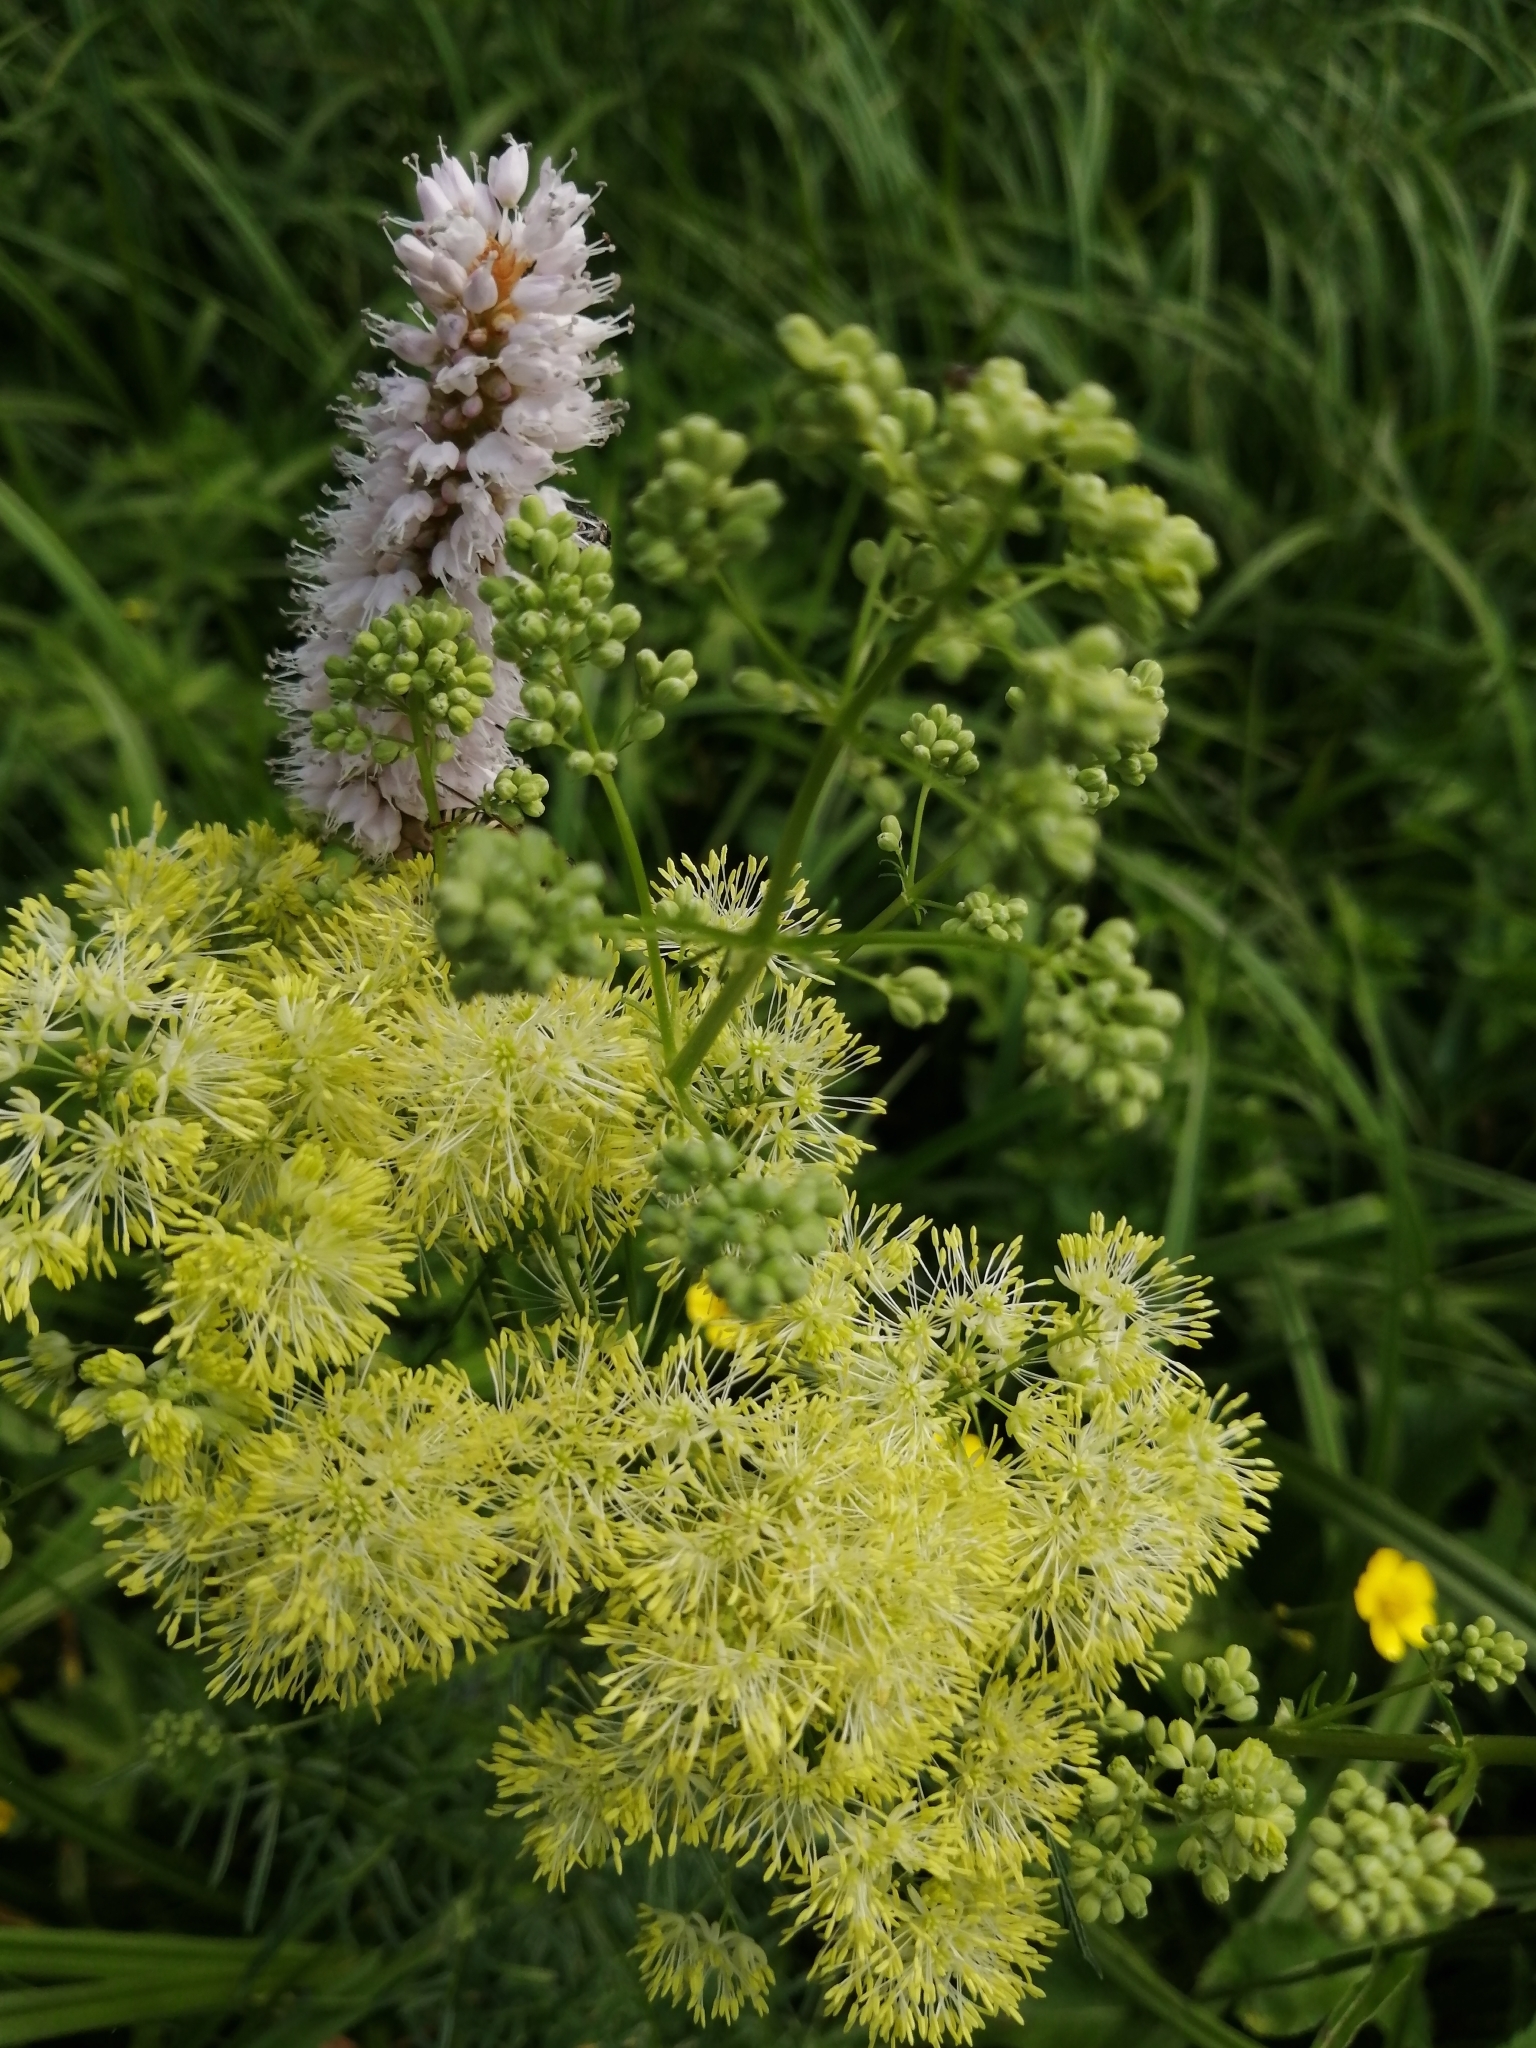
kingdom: Plantae
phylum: Tracheophyta
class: Magnoliopsida
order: Ranunculales
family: Ranunculaceae
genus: Thalictrum
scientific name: Thalictrum lucidum
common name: Shining meadow-rue
